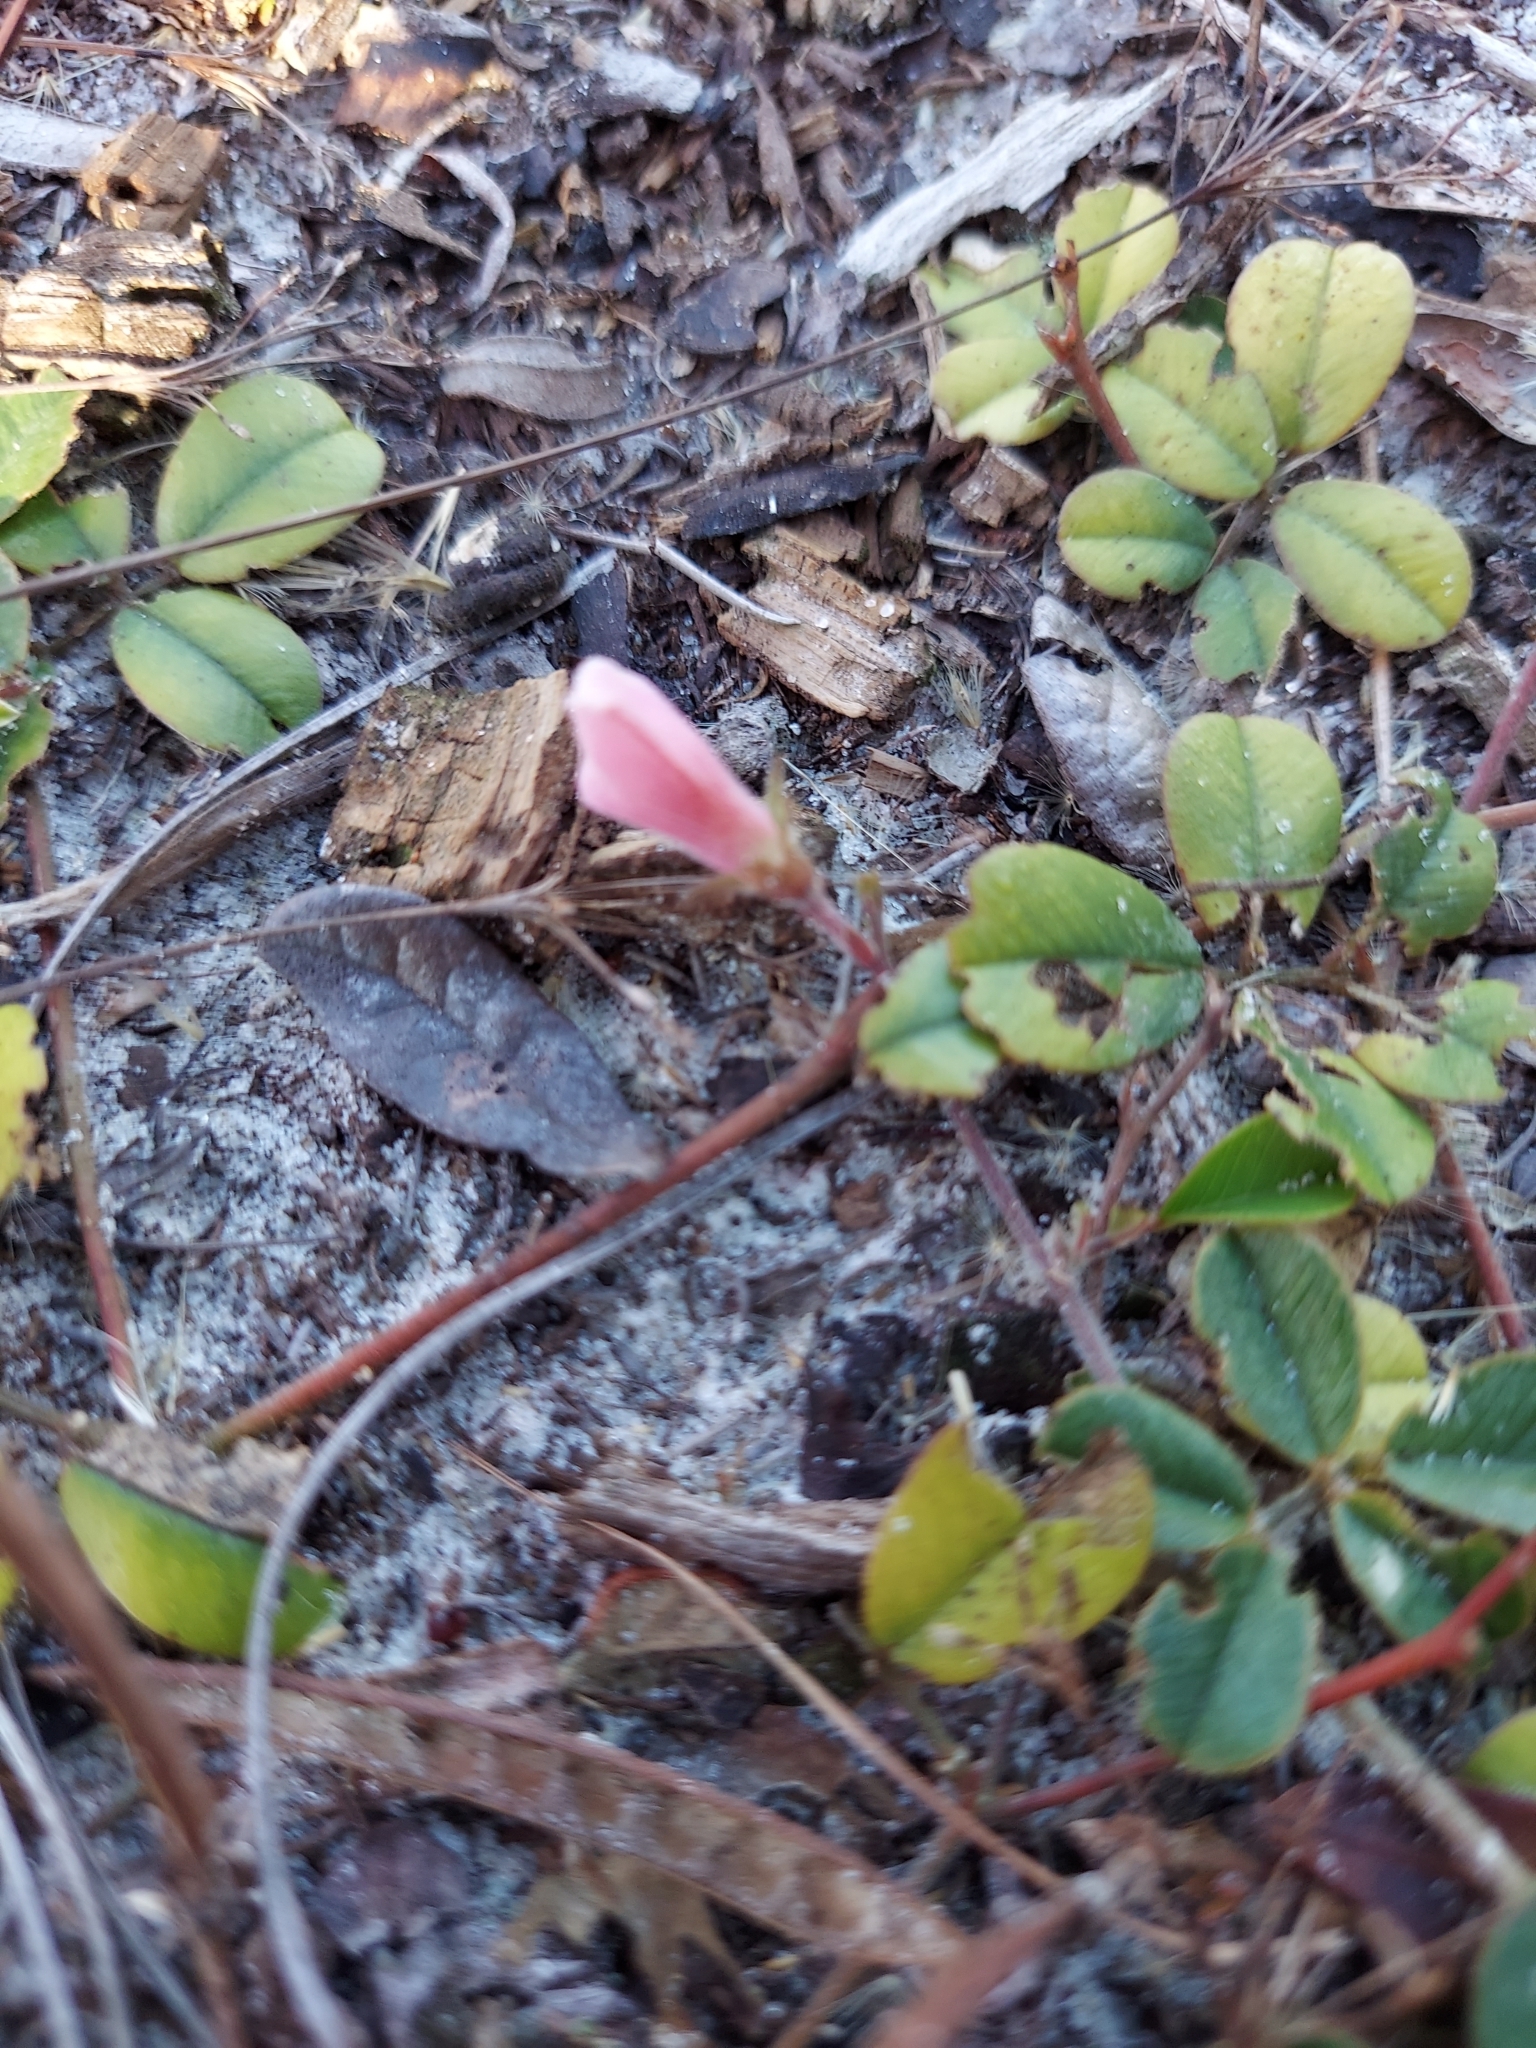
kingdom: Plantae
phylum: Tracheophyta
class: Magnoliopsida
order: Fabales
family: Fabaceae
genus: Tephrosia
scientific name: Tephrosia chrysophylla
